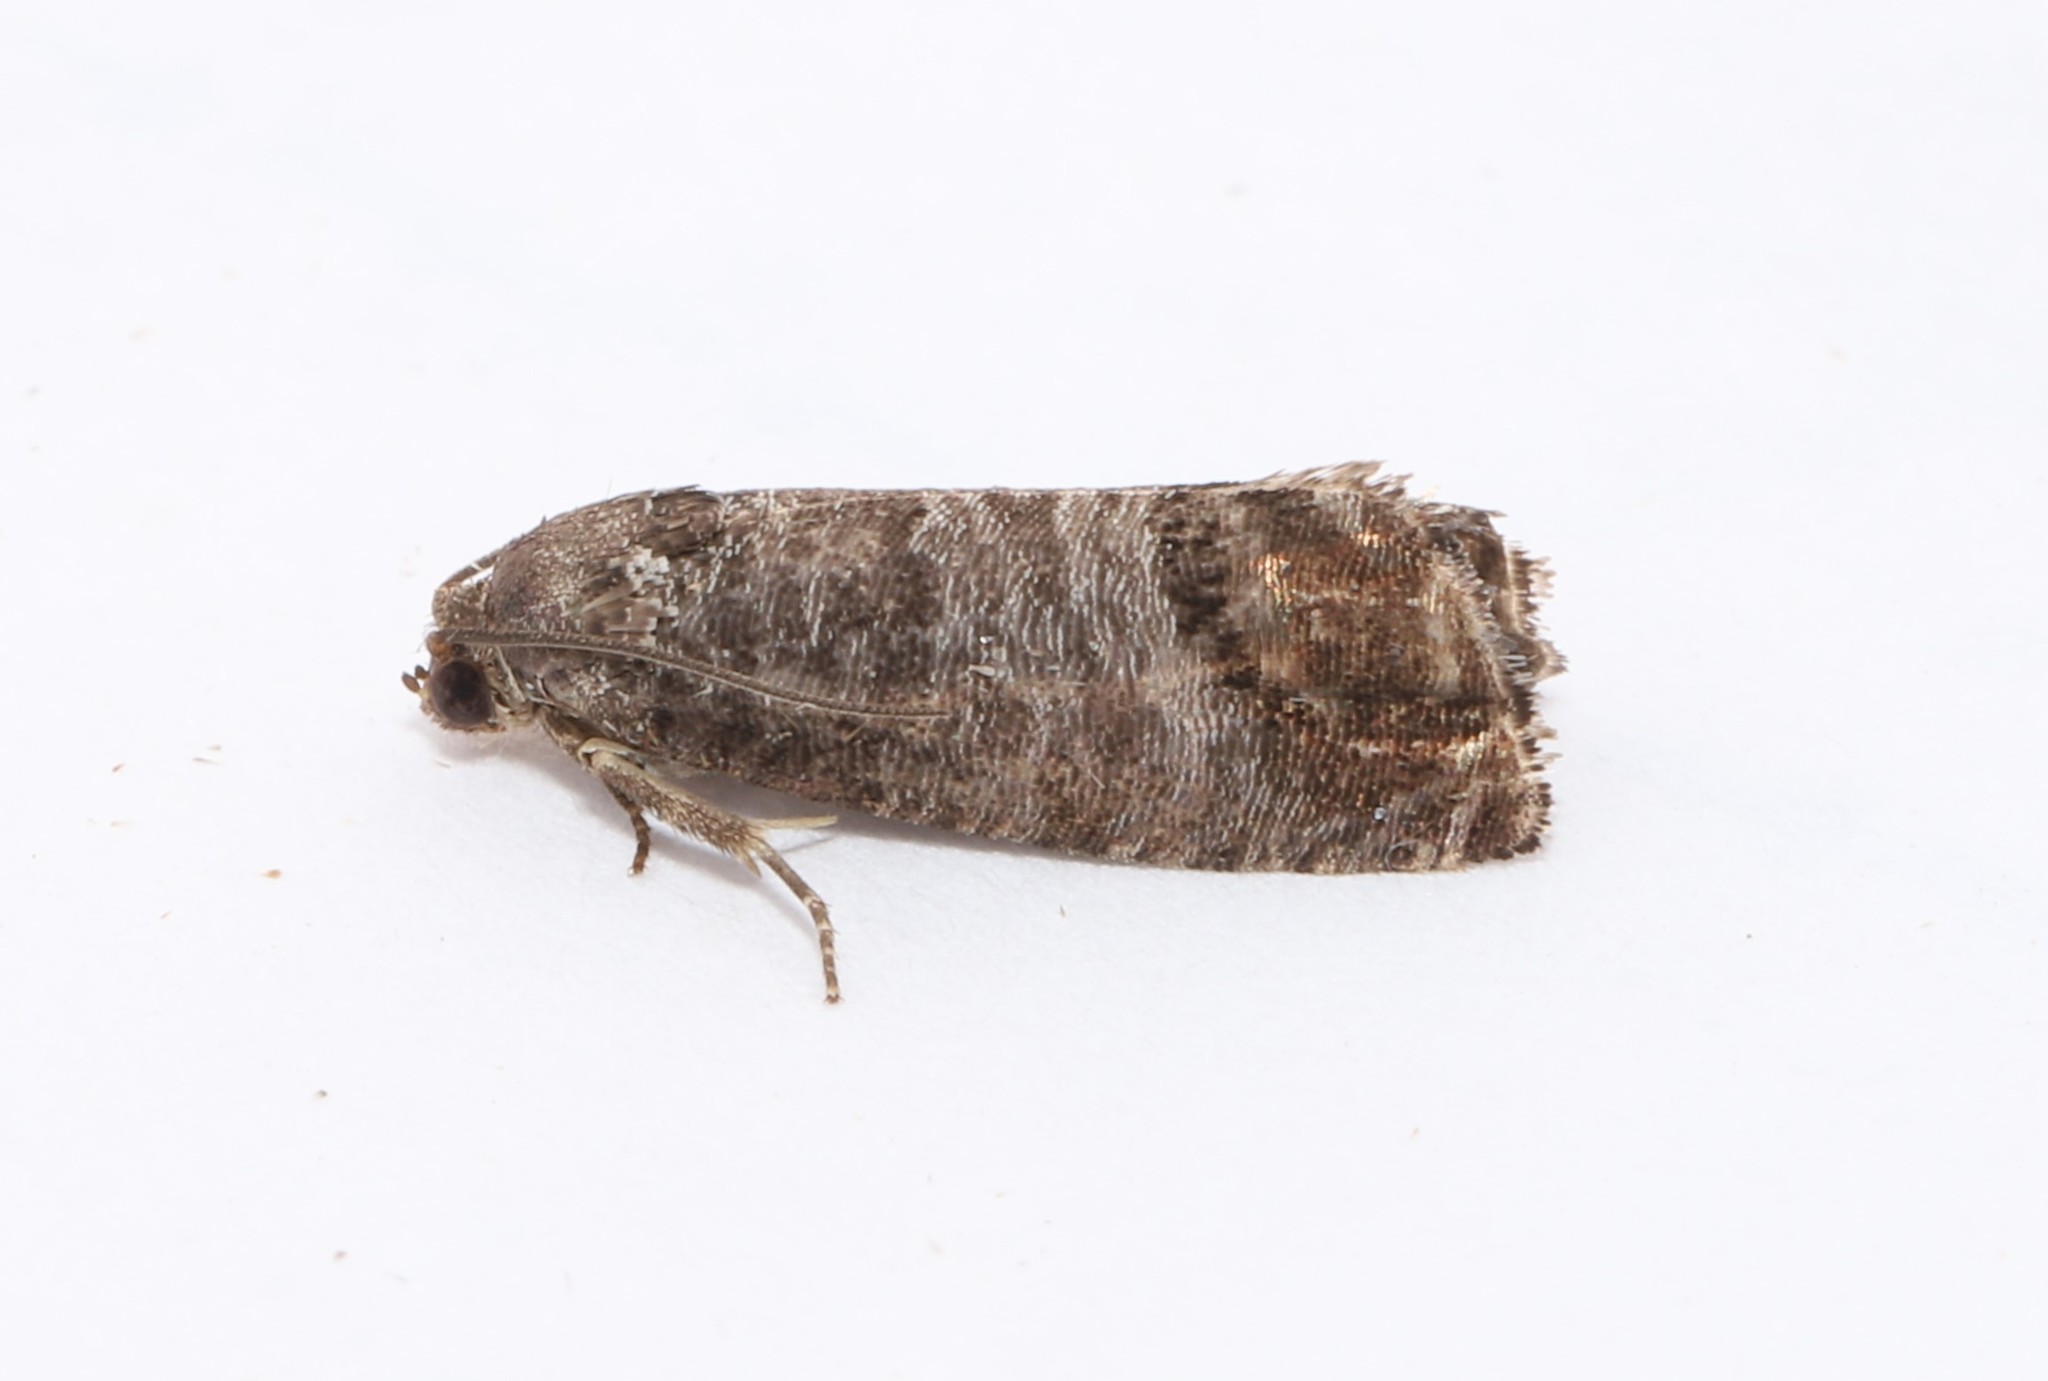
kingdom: Animalia
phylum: Arthropoda
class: Insecta
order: Lepidoptera
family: Tortricidae
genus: Cydia
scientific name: Cydia pomonella
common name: Codling moth
